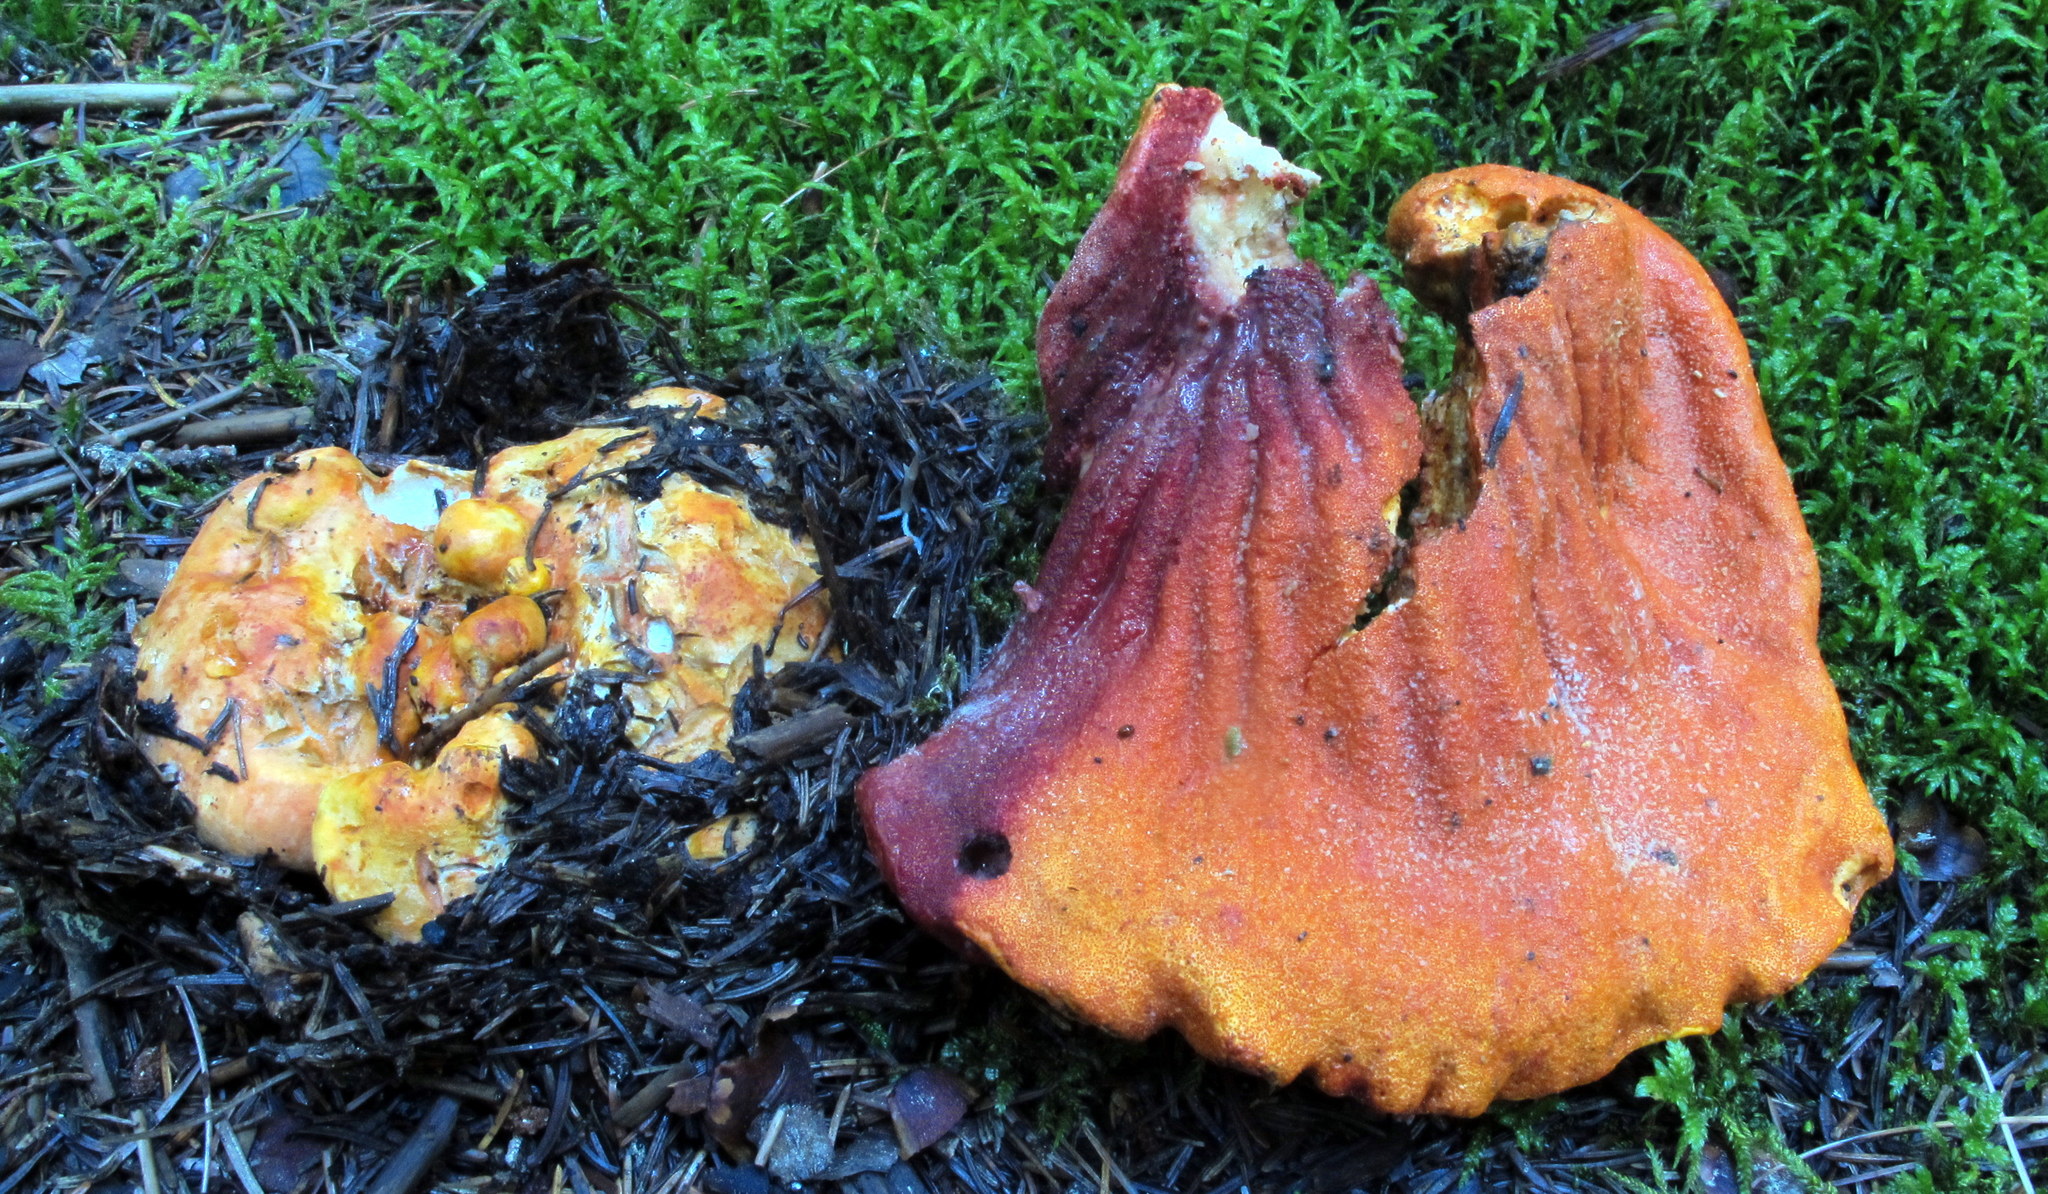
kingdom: Fungi
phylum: Ascomycota
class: Sordariomycetes
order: Hypocreales
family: Hypocreaceae
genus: Hypomyces
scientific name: Hypomyces lactifluorum
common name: Lobster mushroom
